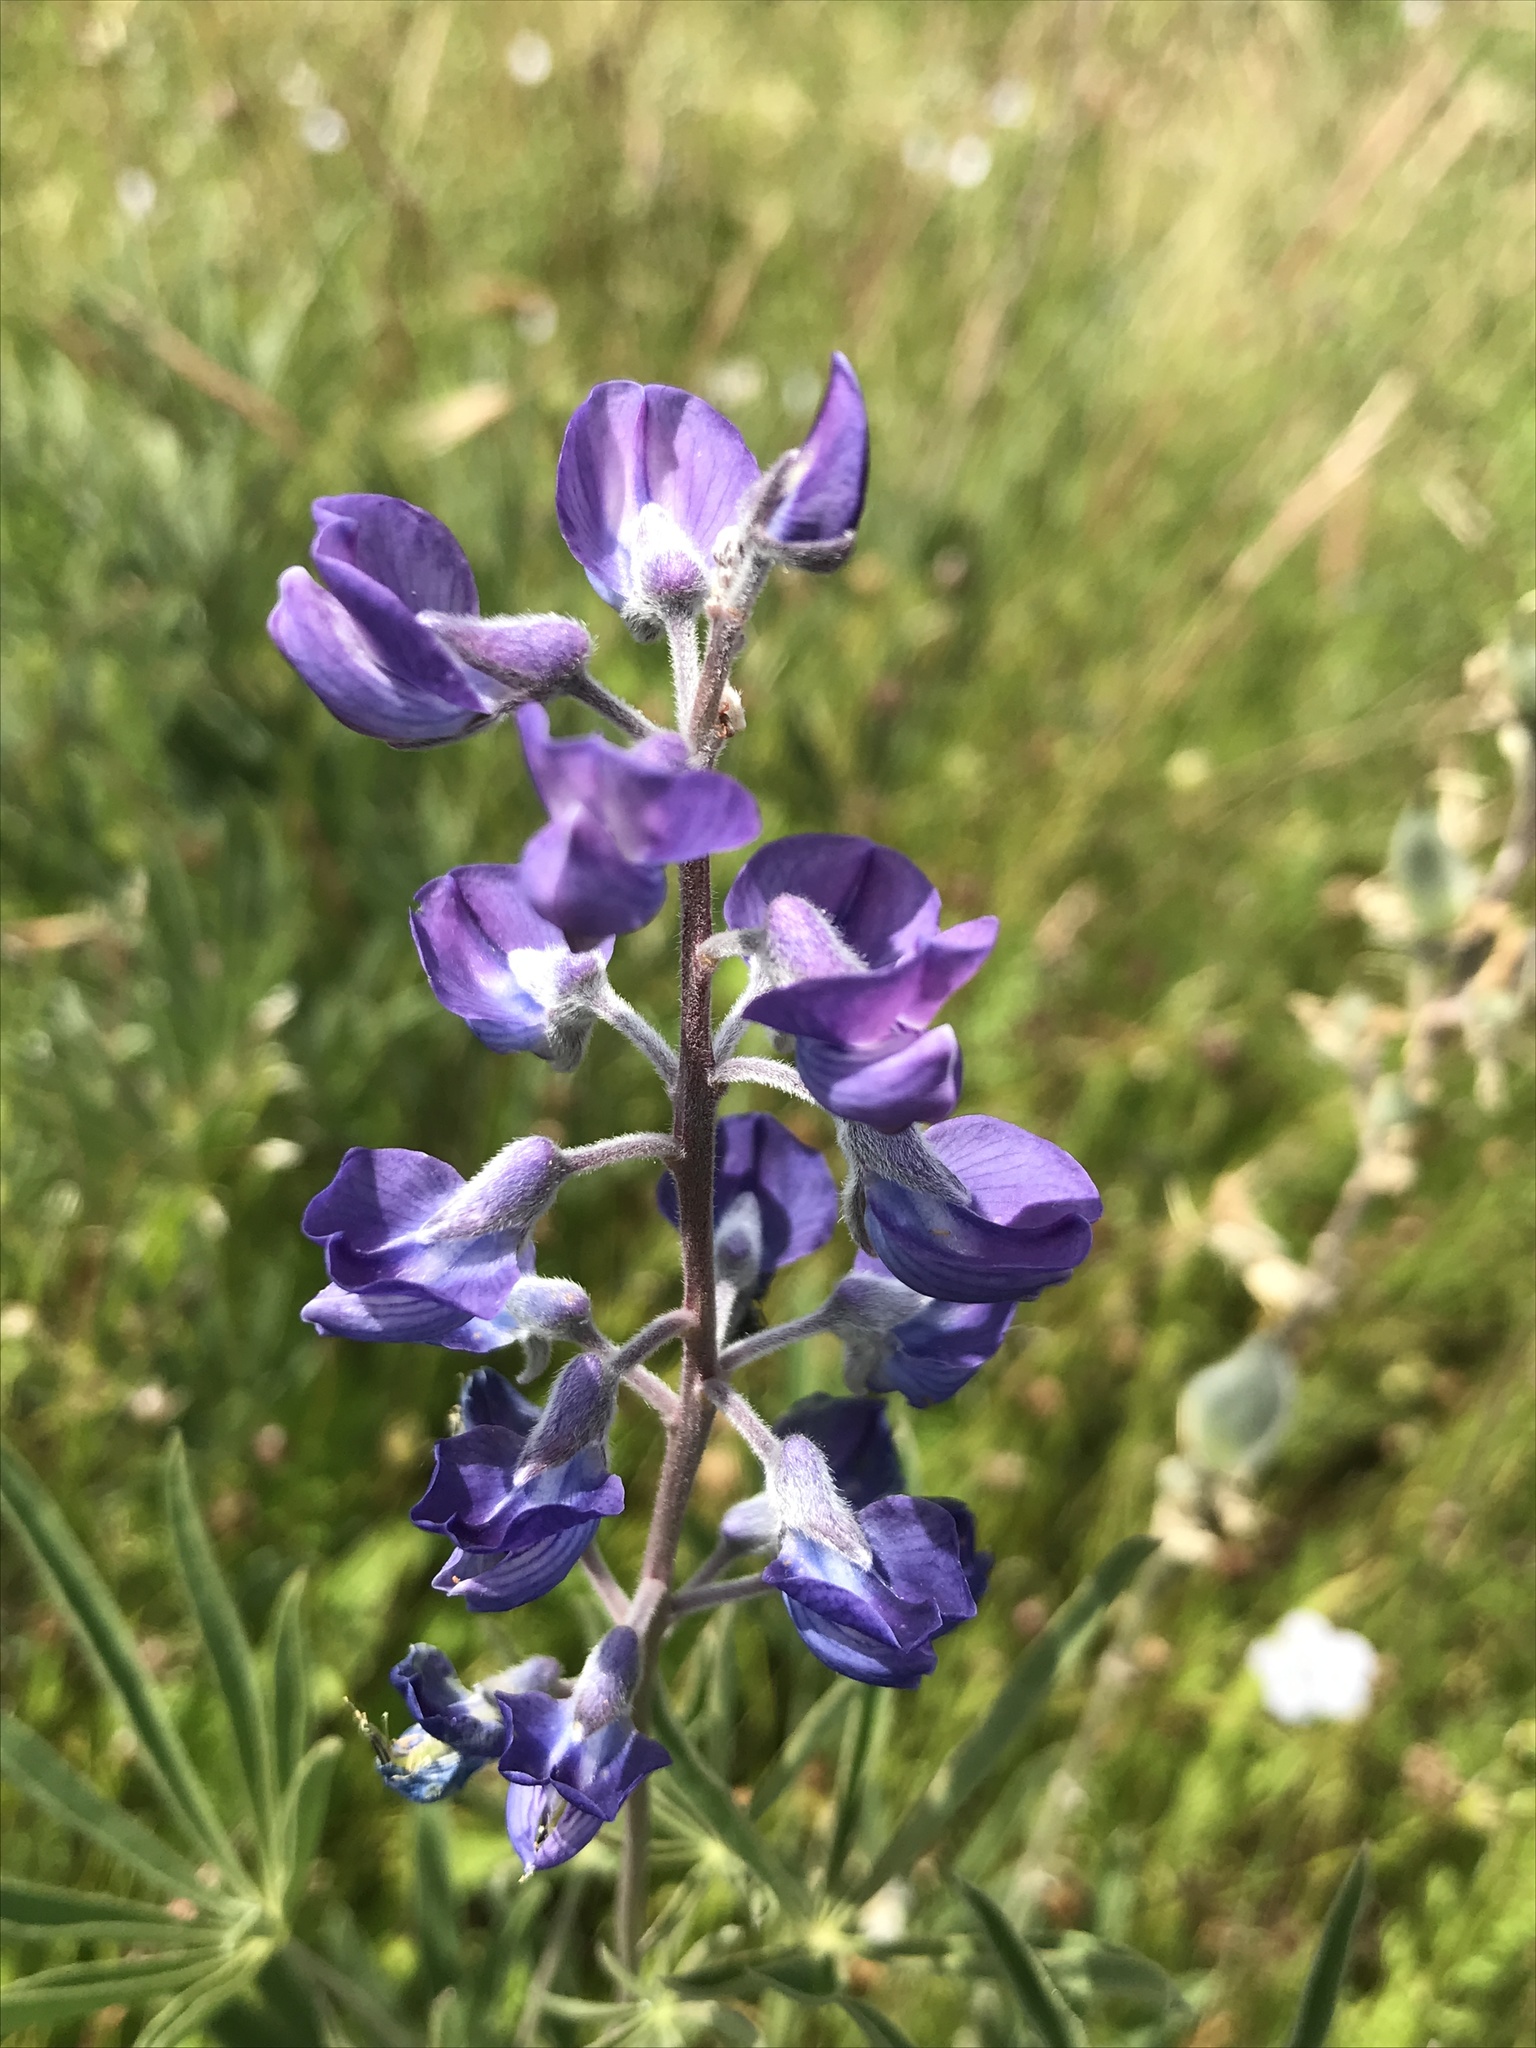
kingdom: Plantae
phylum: Tracheophyta
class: Magnoliopsida
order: Fabales
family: Fabaceae
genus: Lupinus
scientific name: Lupinus arbustus
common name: Montana lupine
